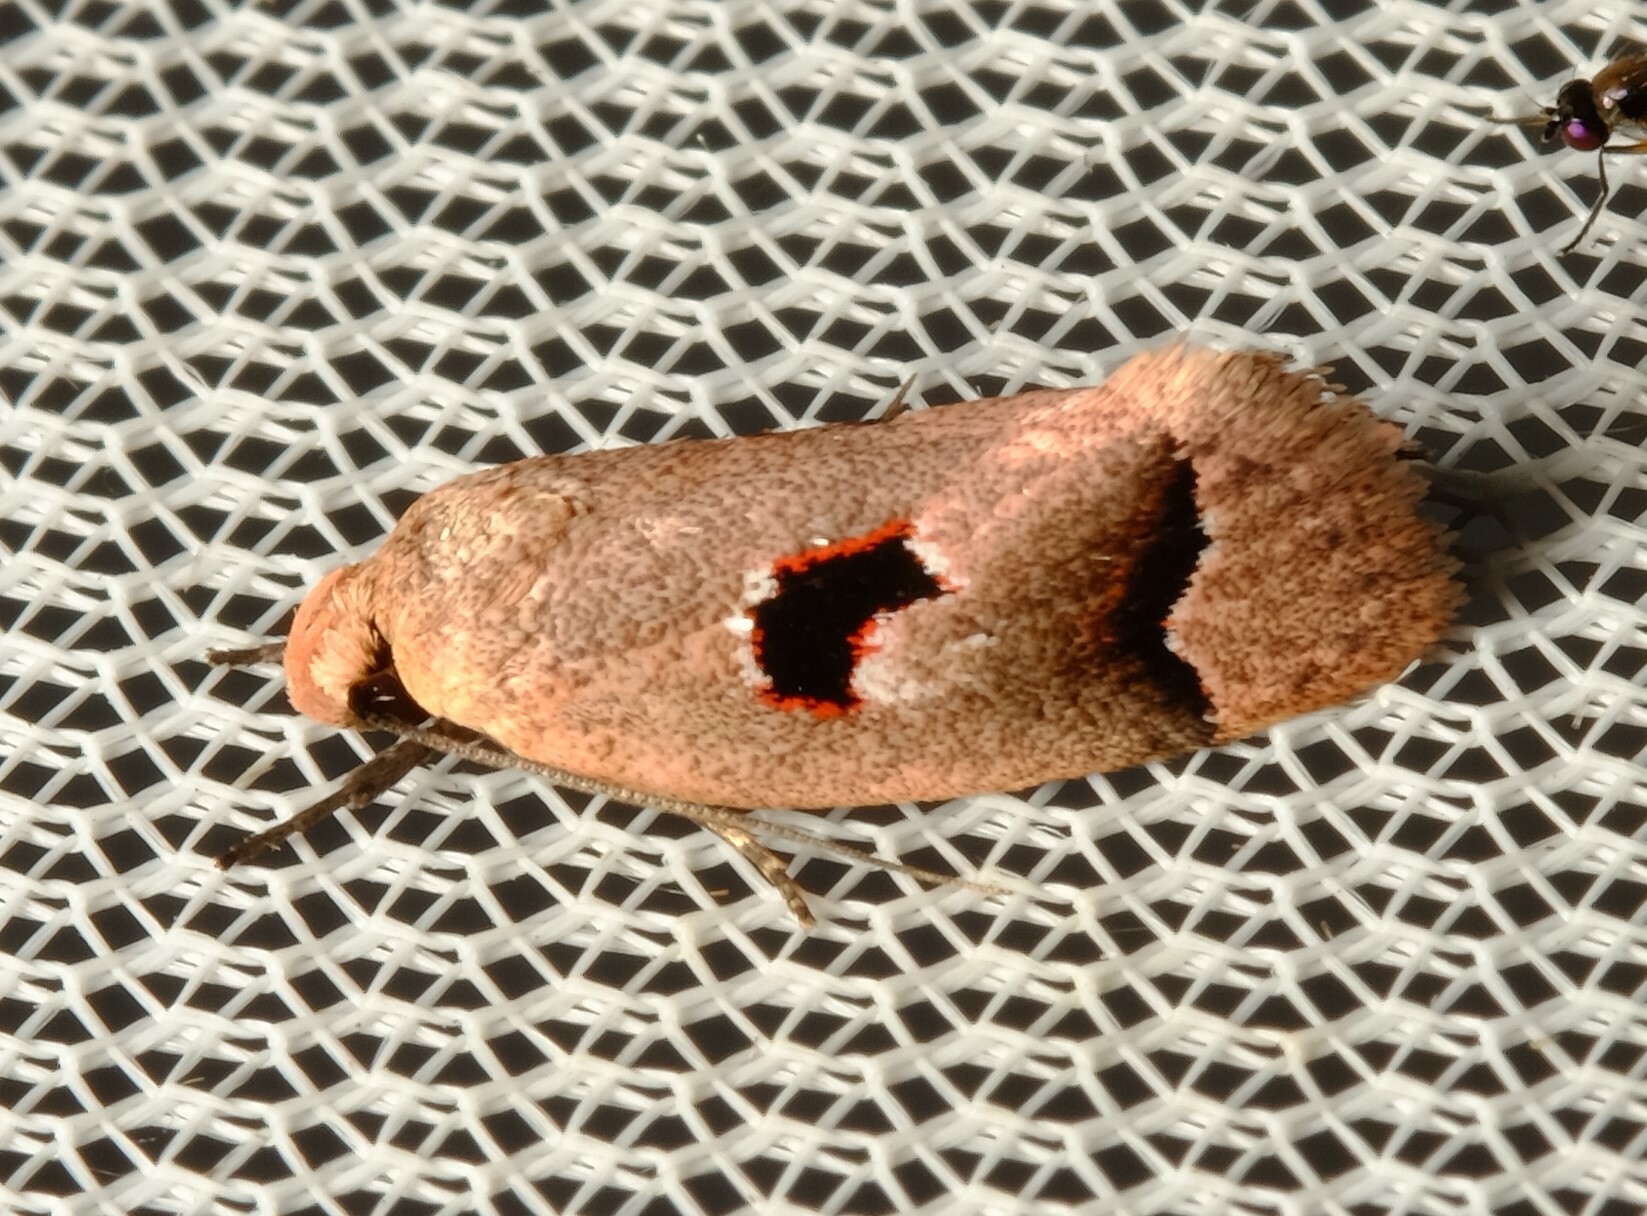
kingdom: Animalia
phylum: Arthropoda
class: Insecta
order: Lepidoptera
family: Oecophoridae
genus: Acanthodela
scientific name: Acanthodela erythrosema
